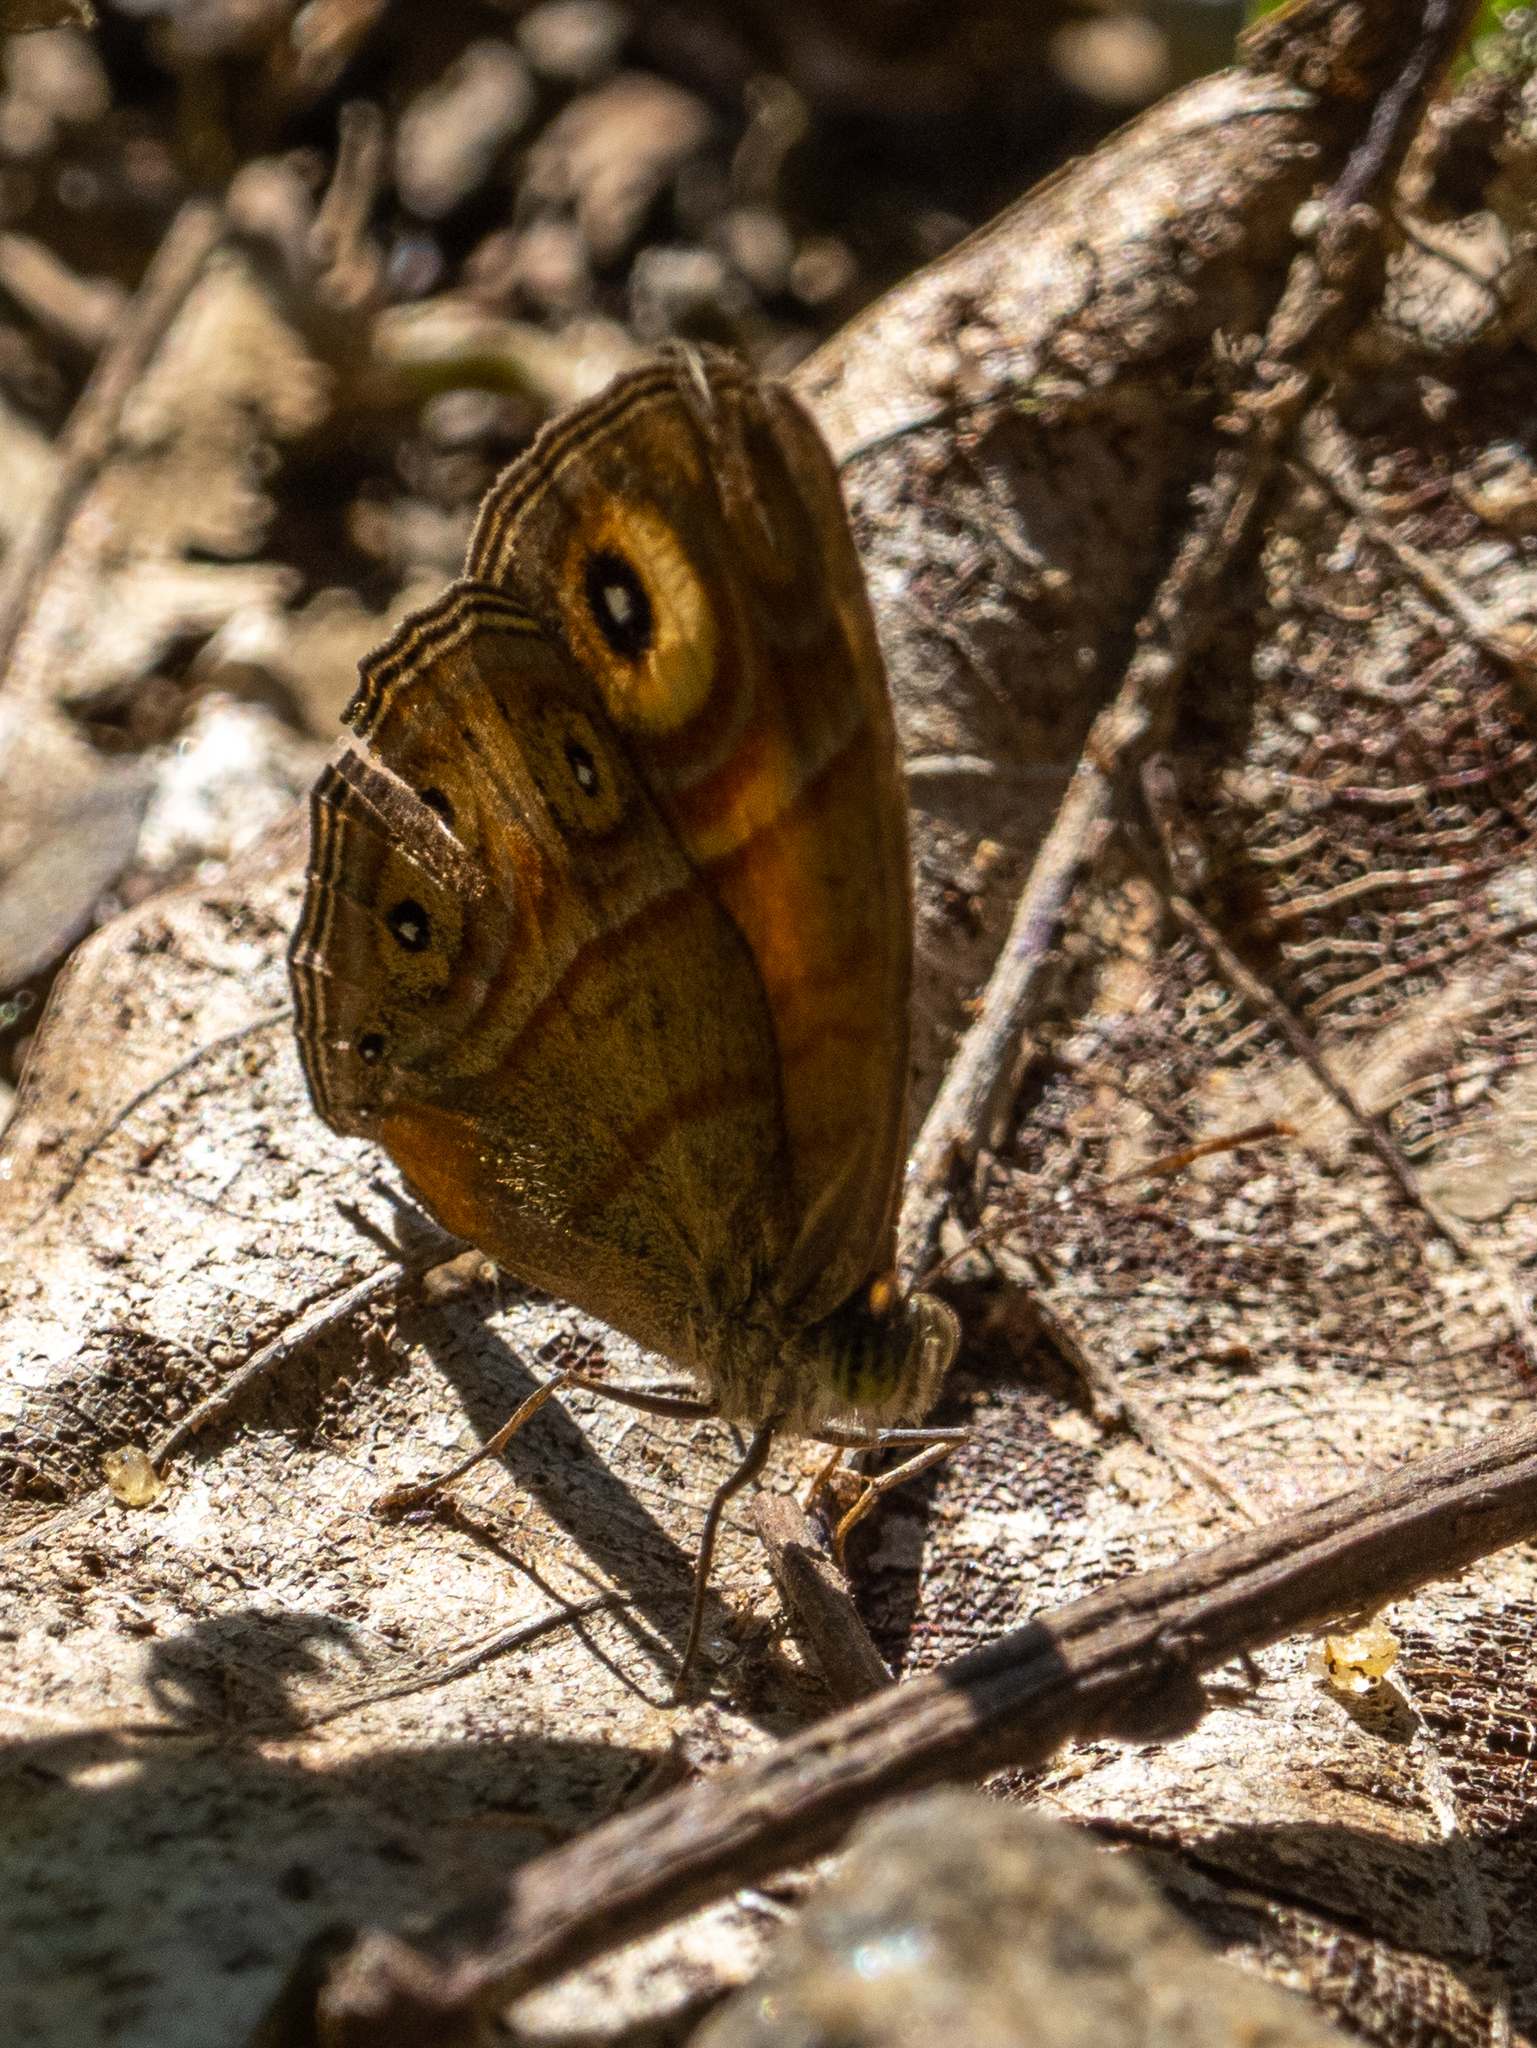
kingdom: Animalia
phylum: Arthropoda
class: Insecta
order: Lepidoptera
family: Nymphalidae
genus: Mycalesis
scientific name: Mycalesis patnia
